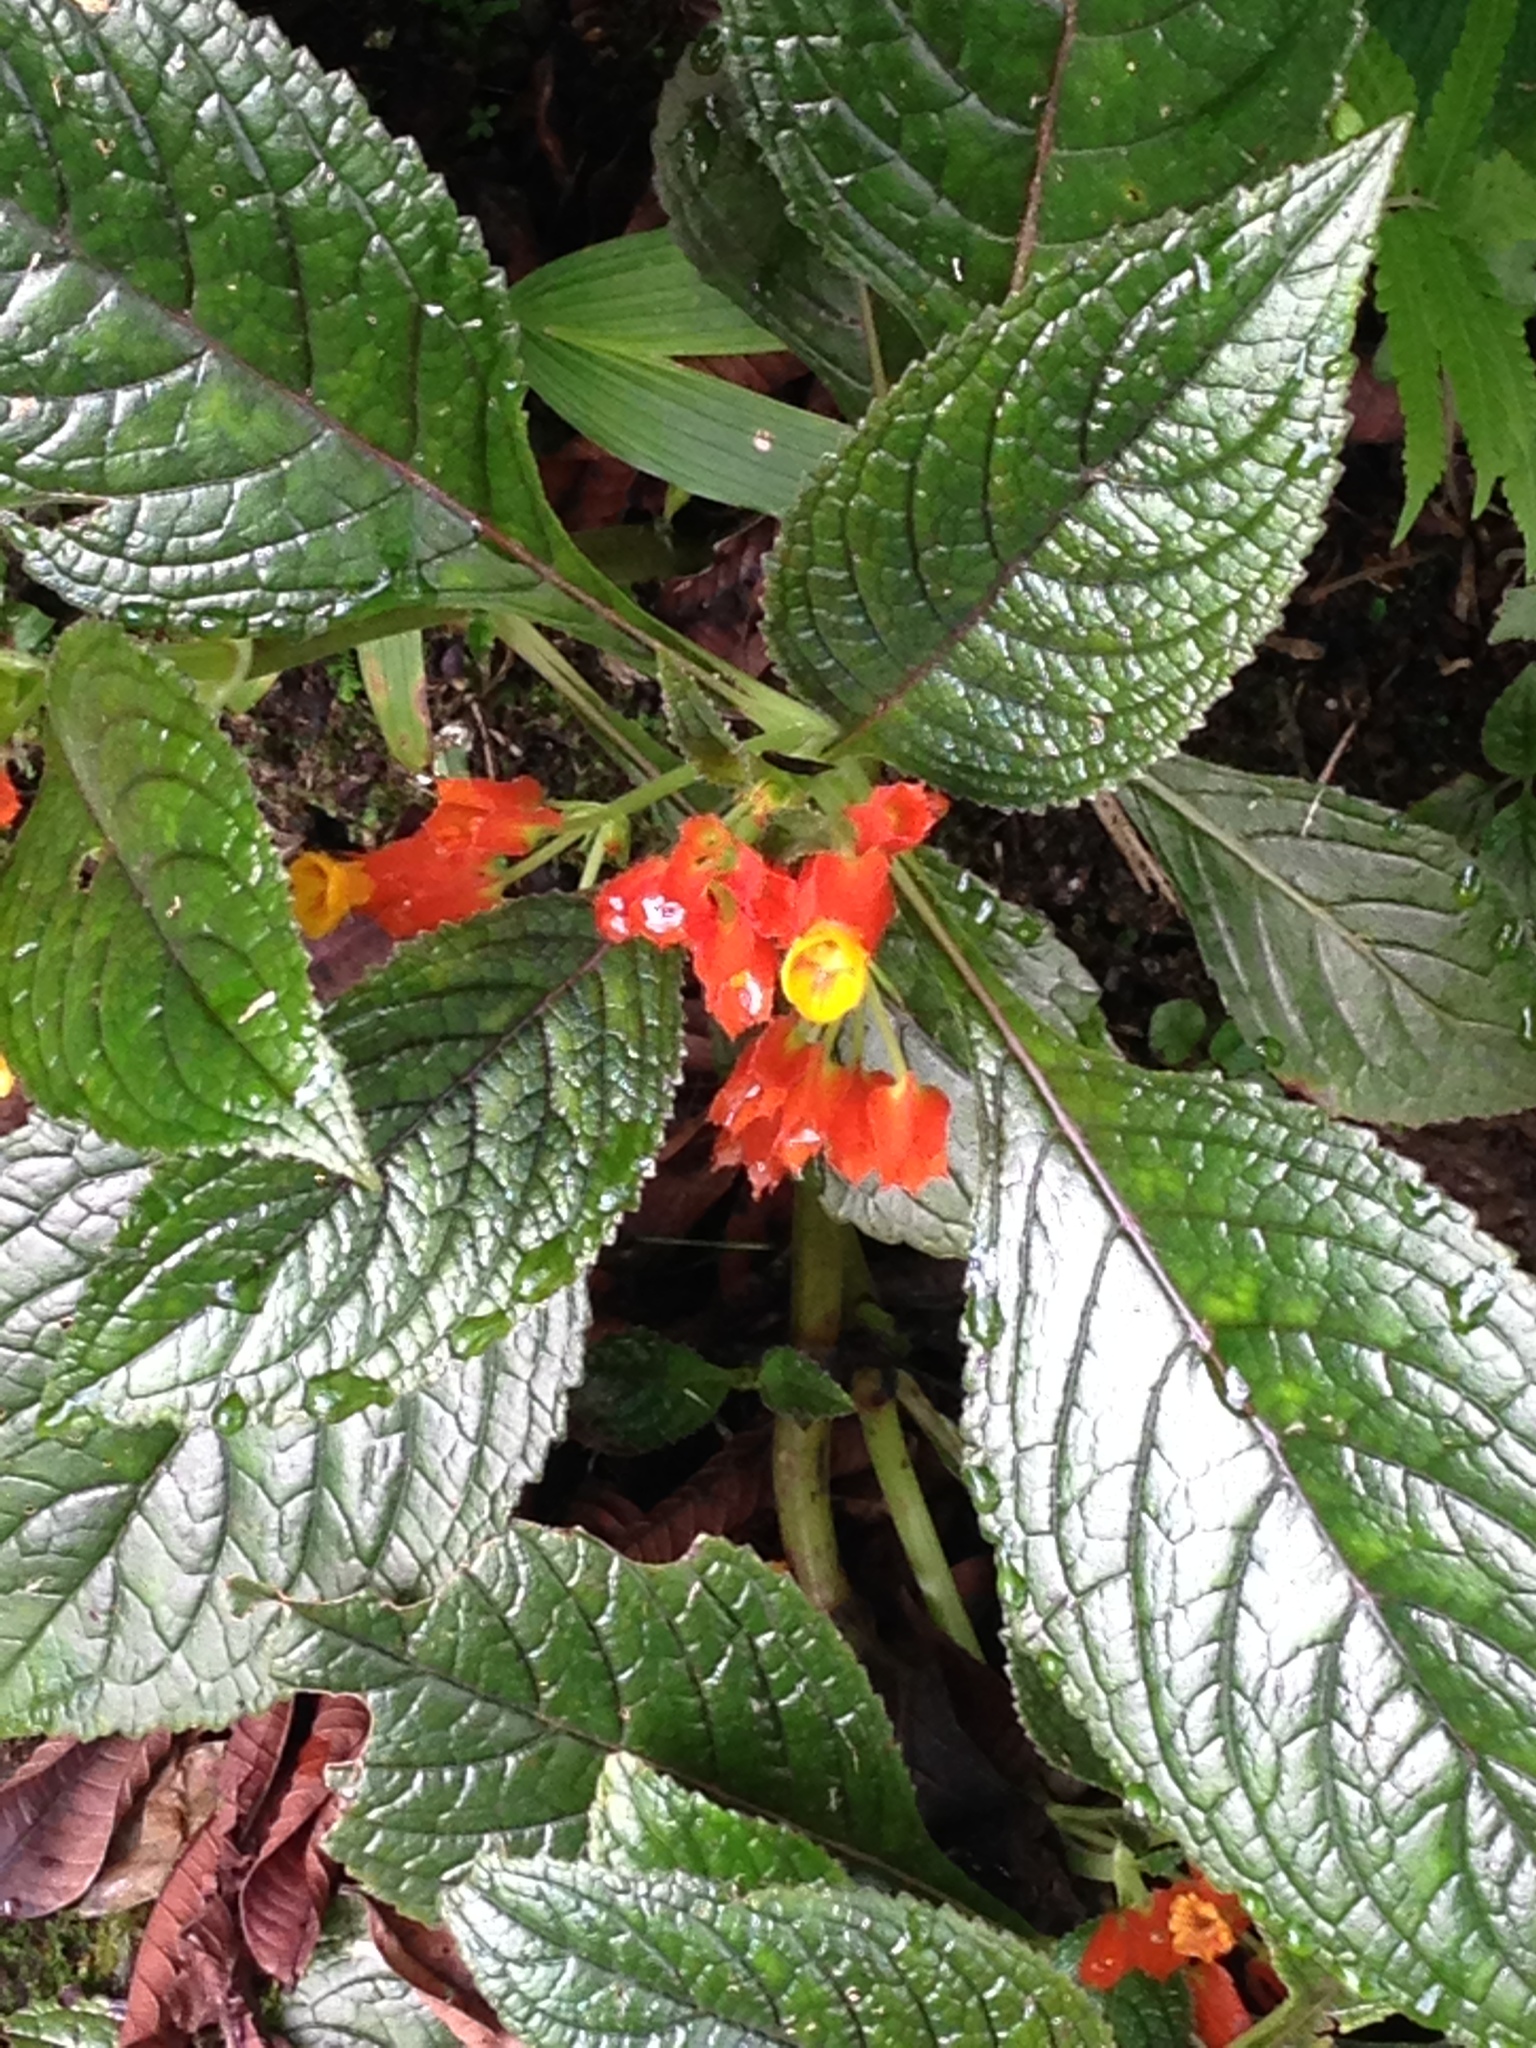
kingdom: Plantae
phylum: Tracheophyta
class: Magnoliopsida
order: Lamiales
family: Gesneriaceae
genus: Chrysothemis
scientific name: Chrysothemis pulchella
